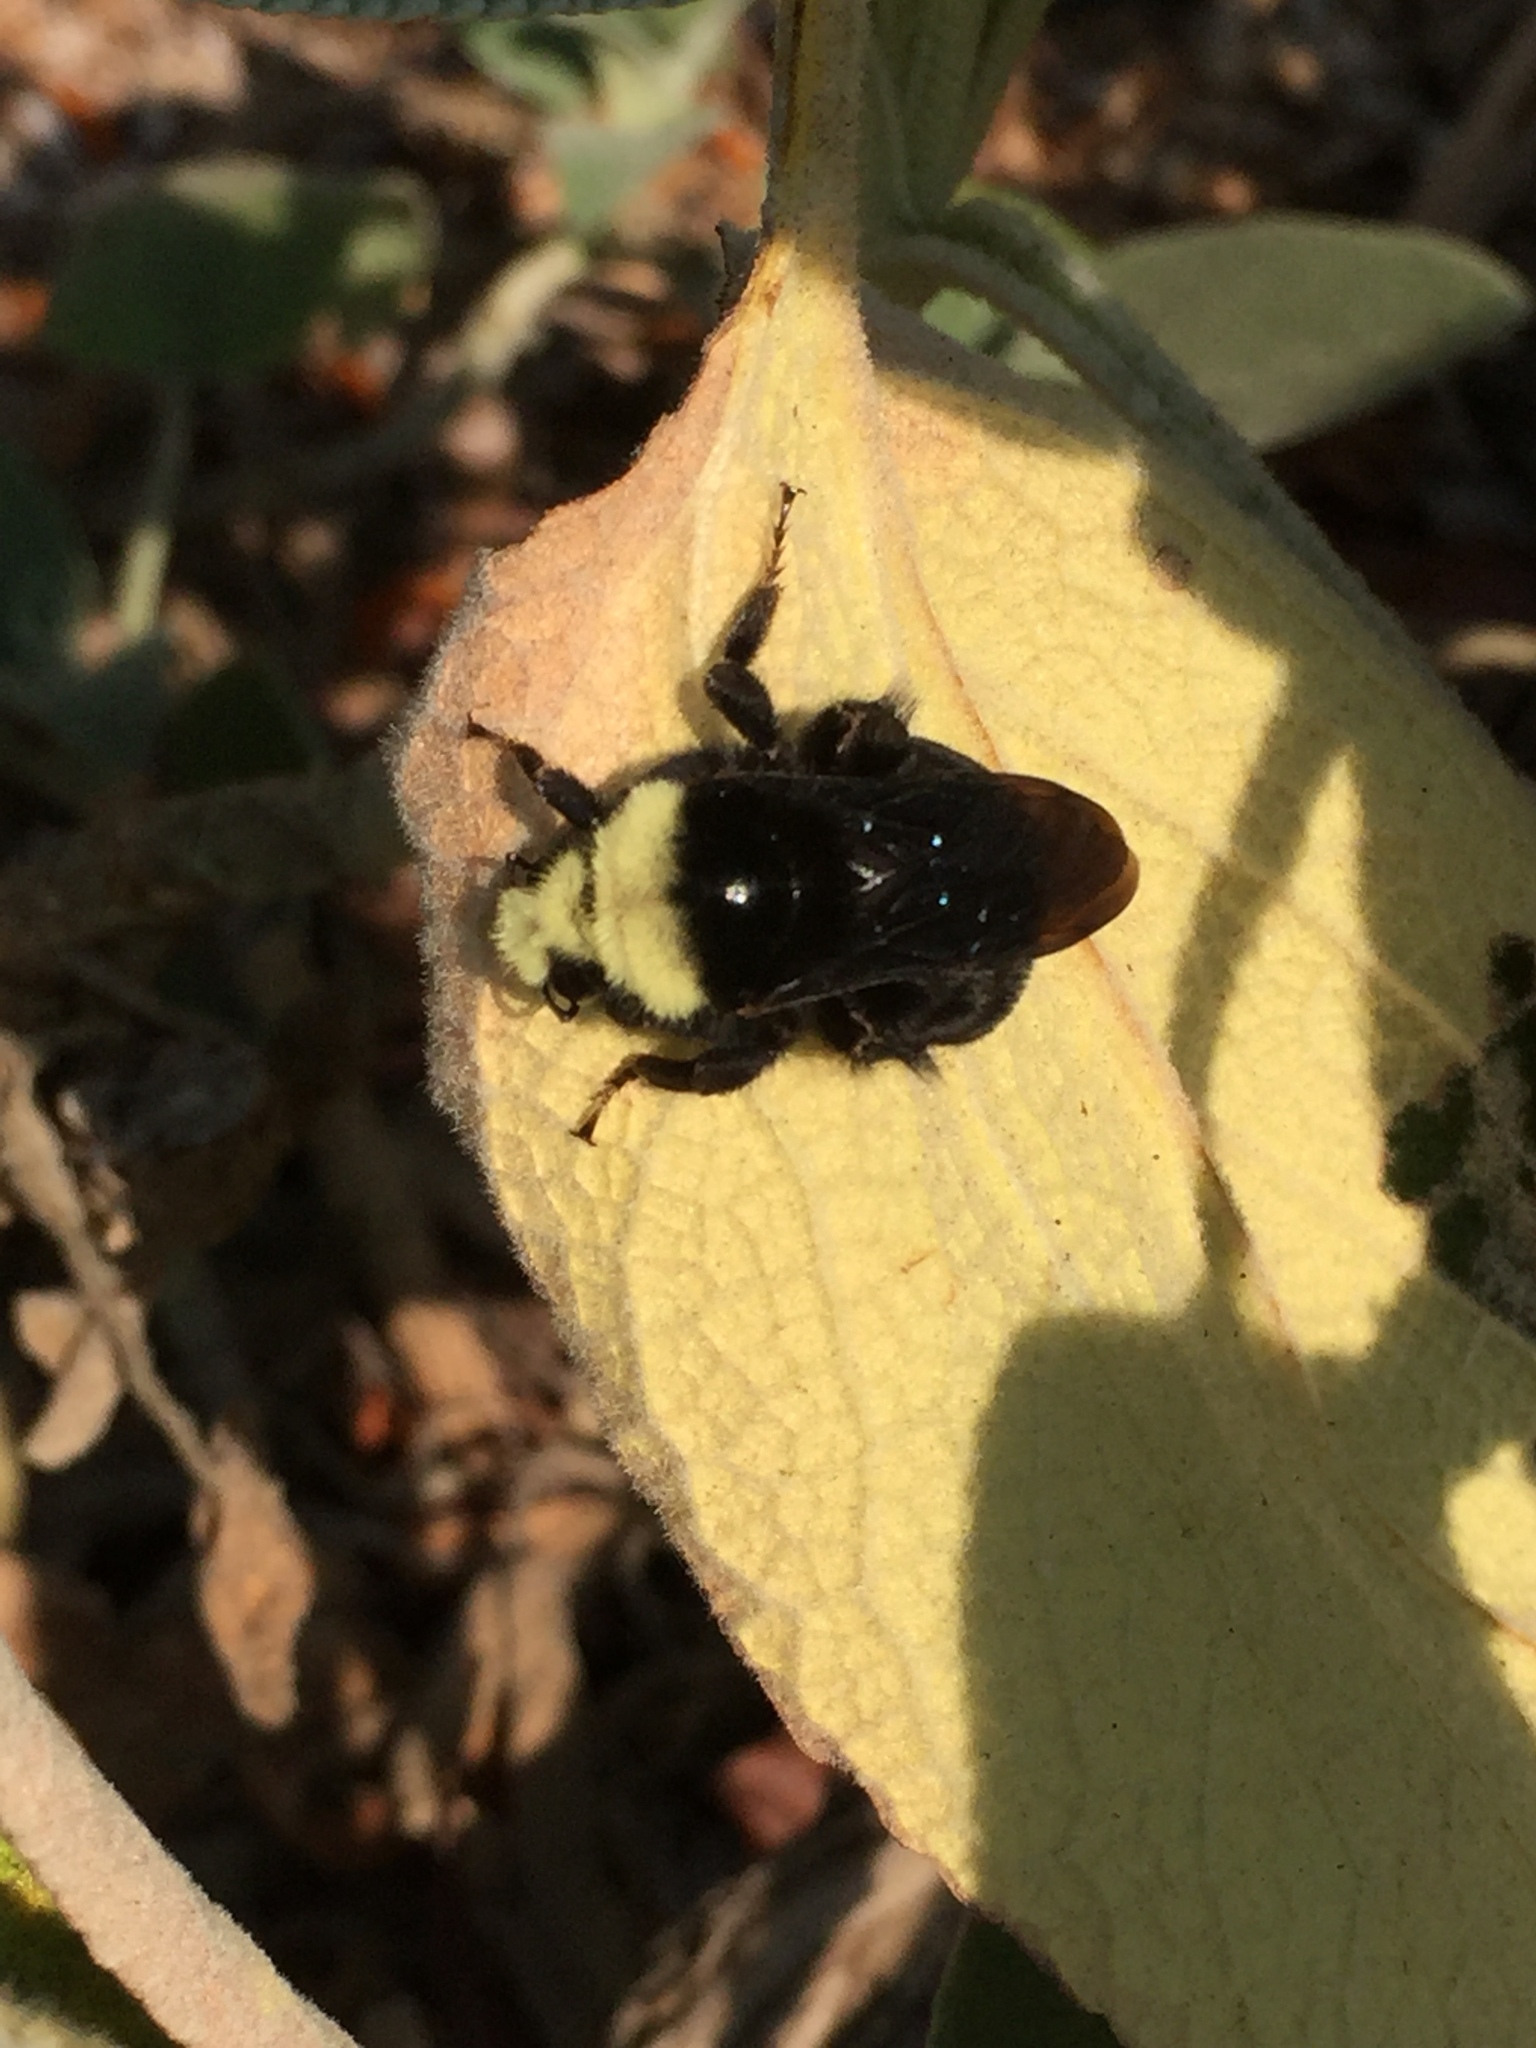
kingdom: Animalia
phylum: Arthropoda
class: Insecta
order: Hymenoptera
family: Apidae
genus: Bombus
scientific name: Bombus vosnesenskii
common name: Vosnesensky bumble bee
